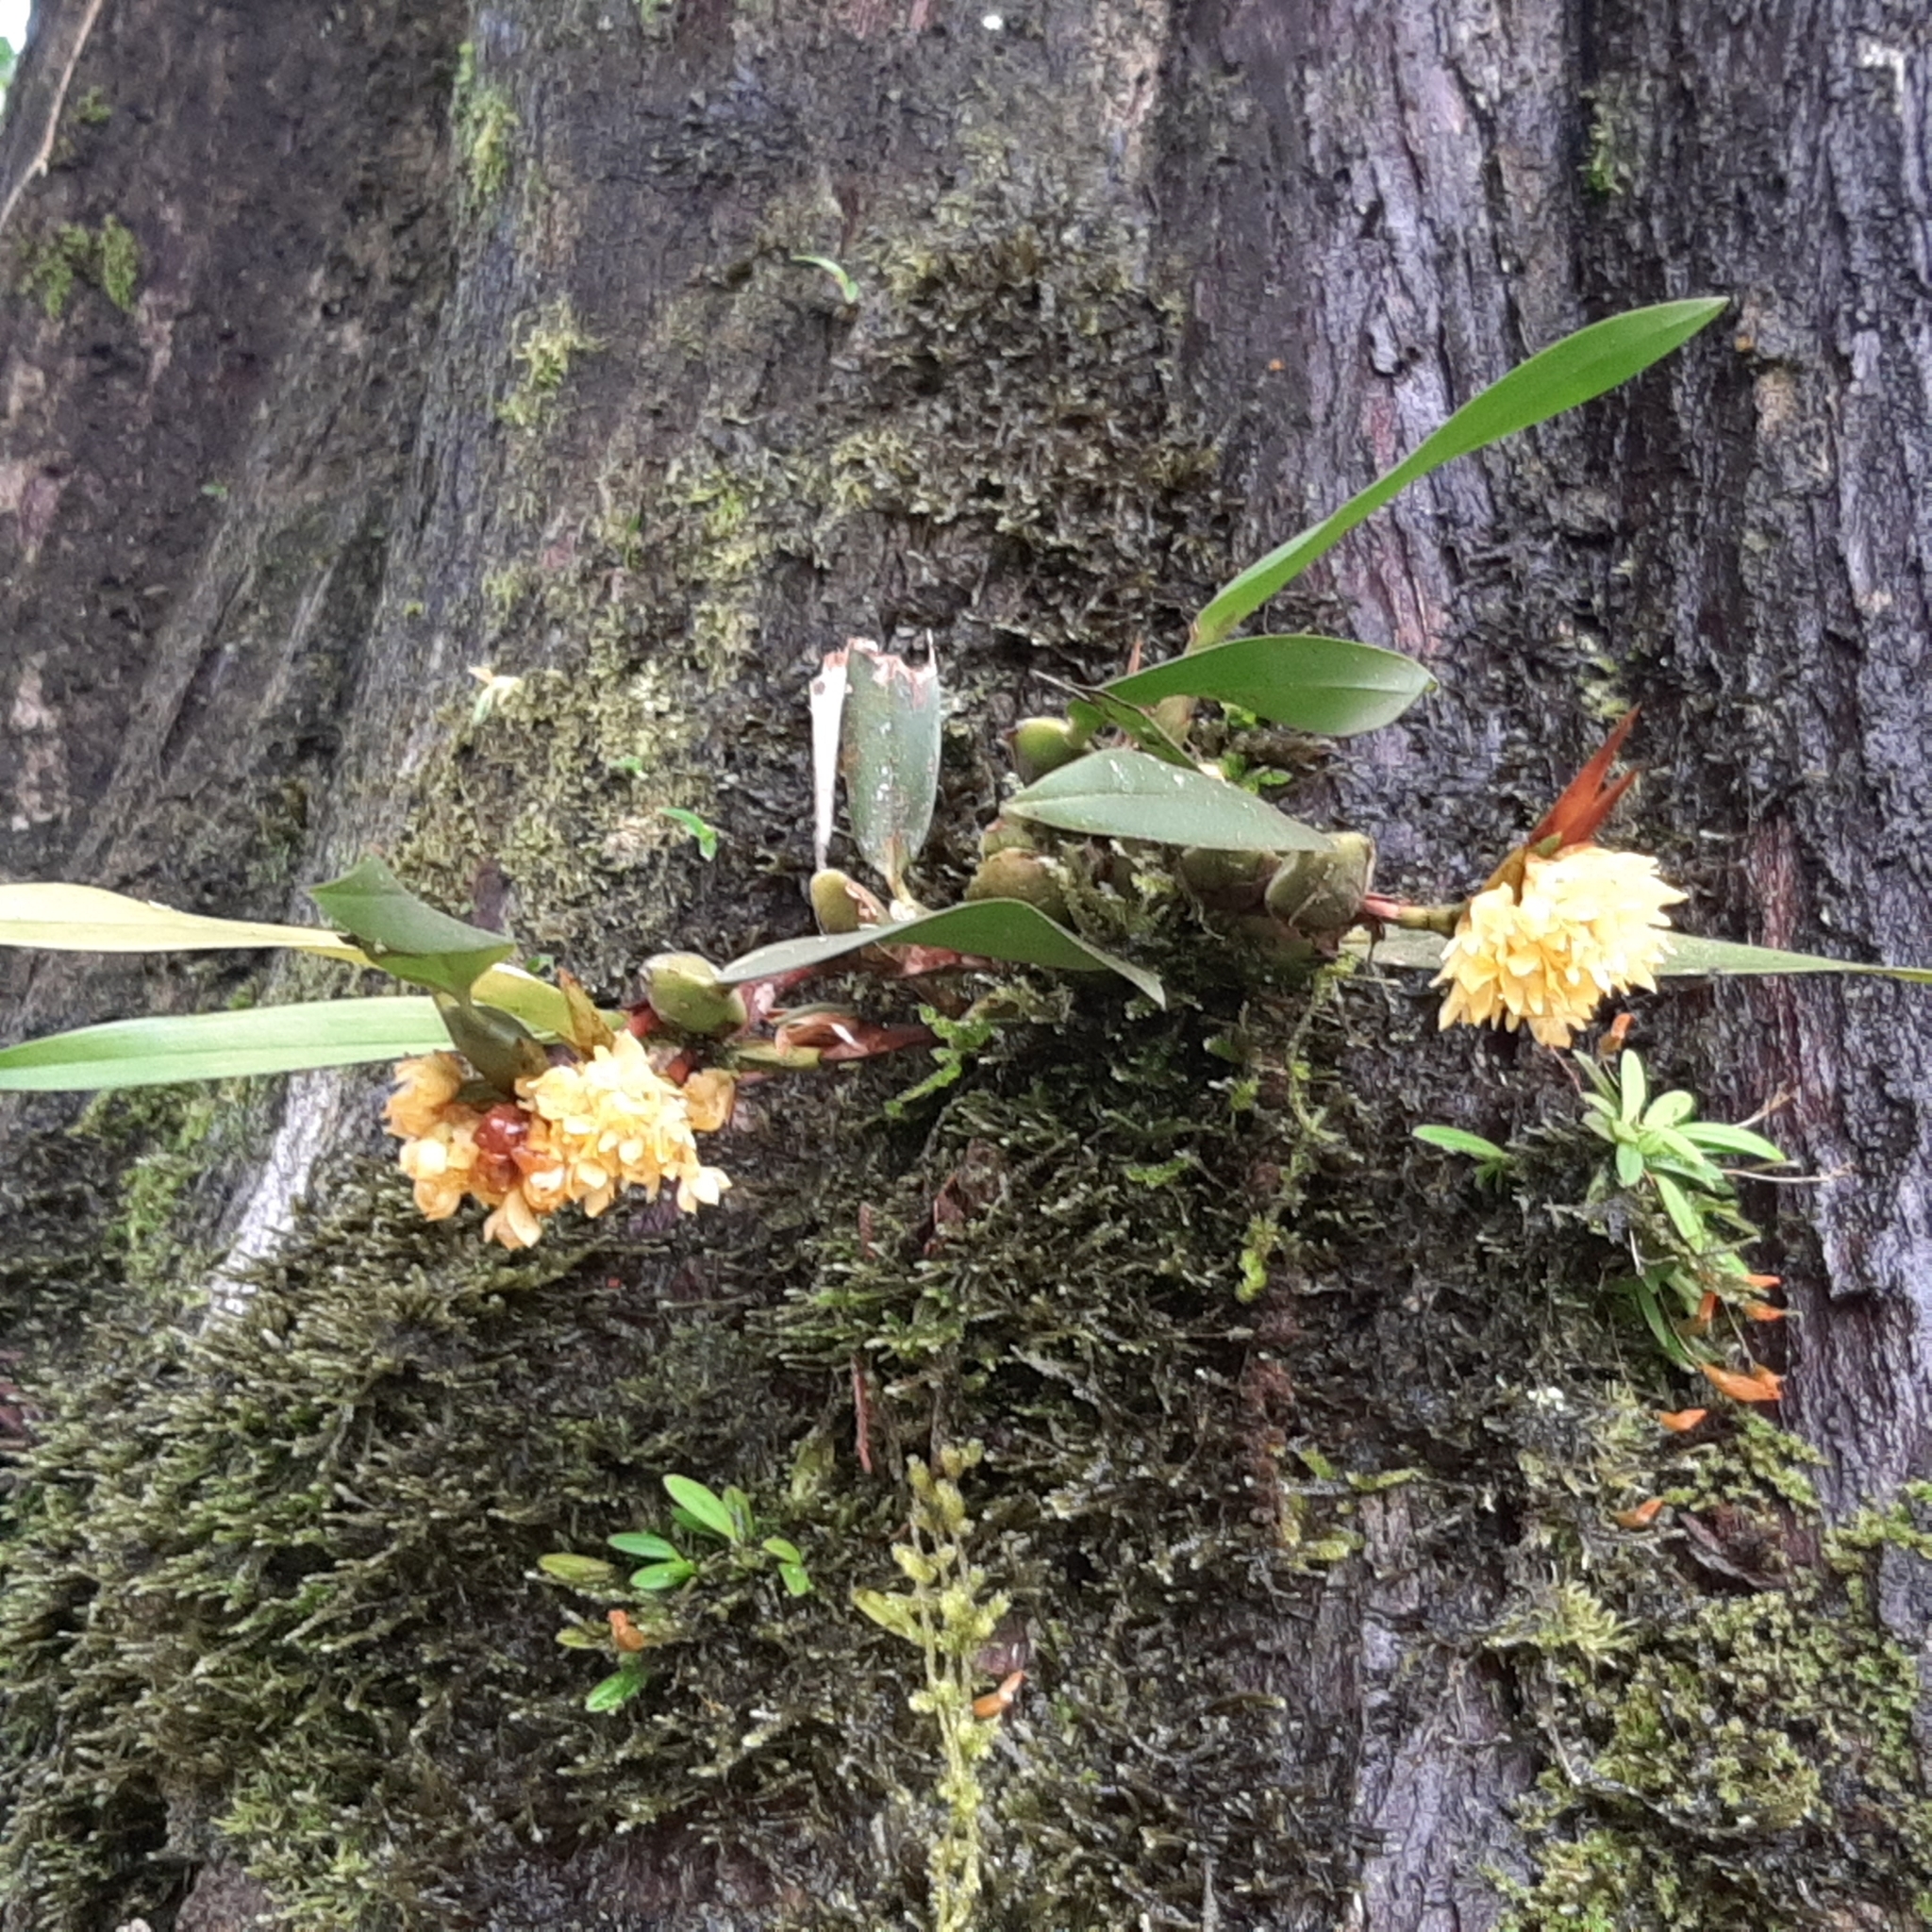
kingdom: Plantae
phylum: Tracheophyta
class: Liliopsida
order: Asparagales
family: Orchidaceae
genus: Maxillaria
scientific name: Maxillaria pseudoneglecta
